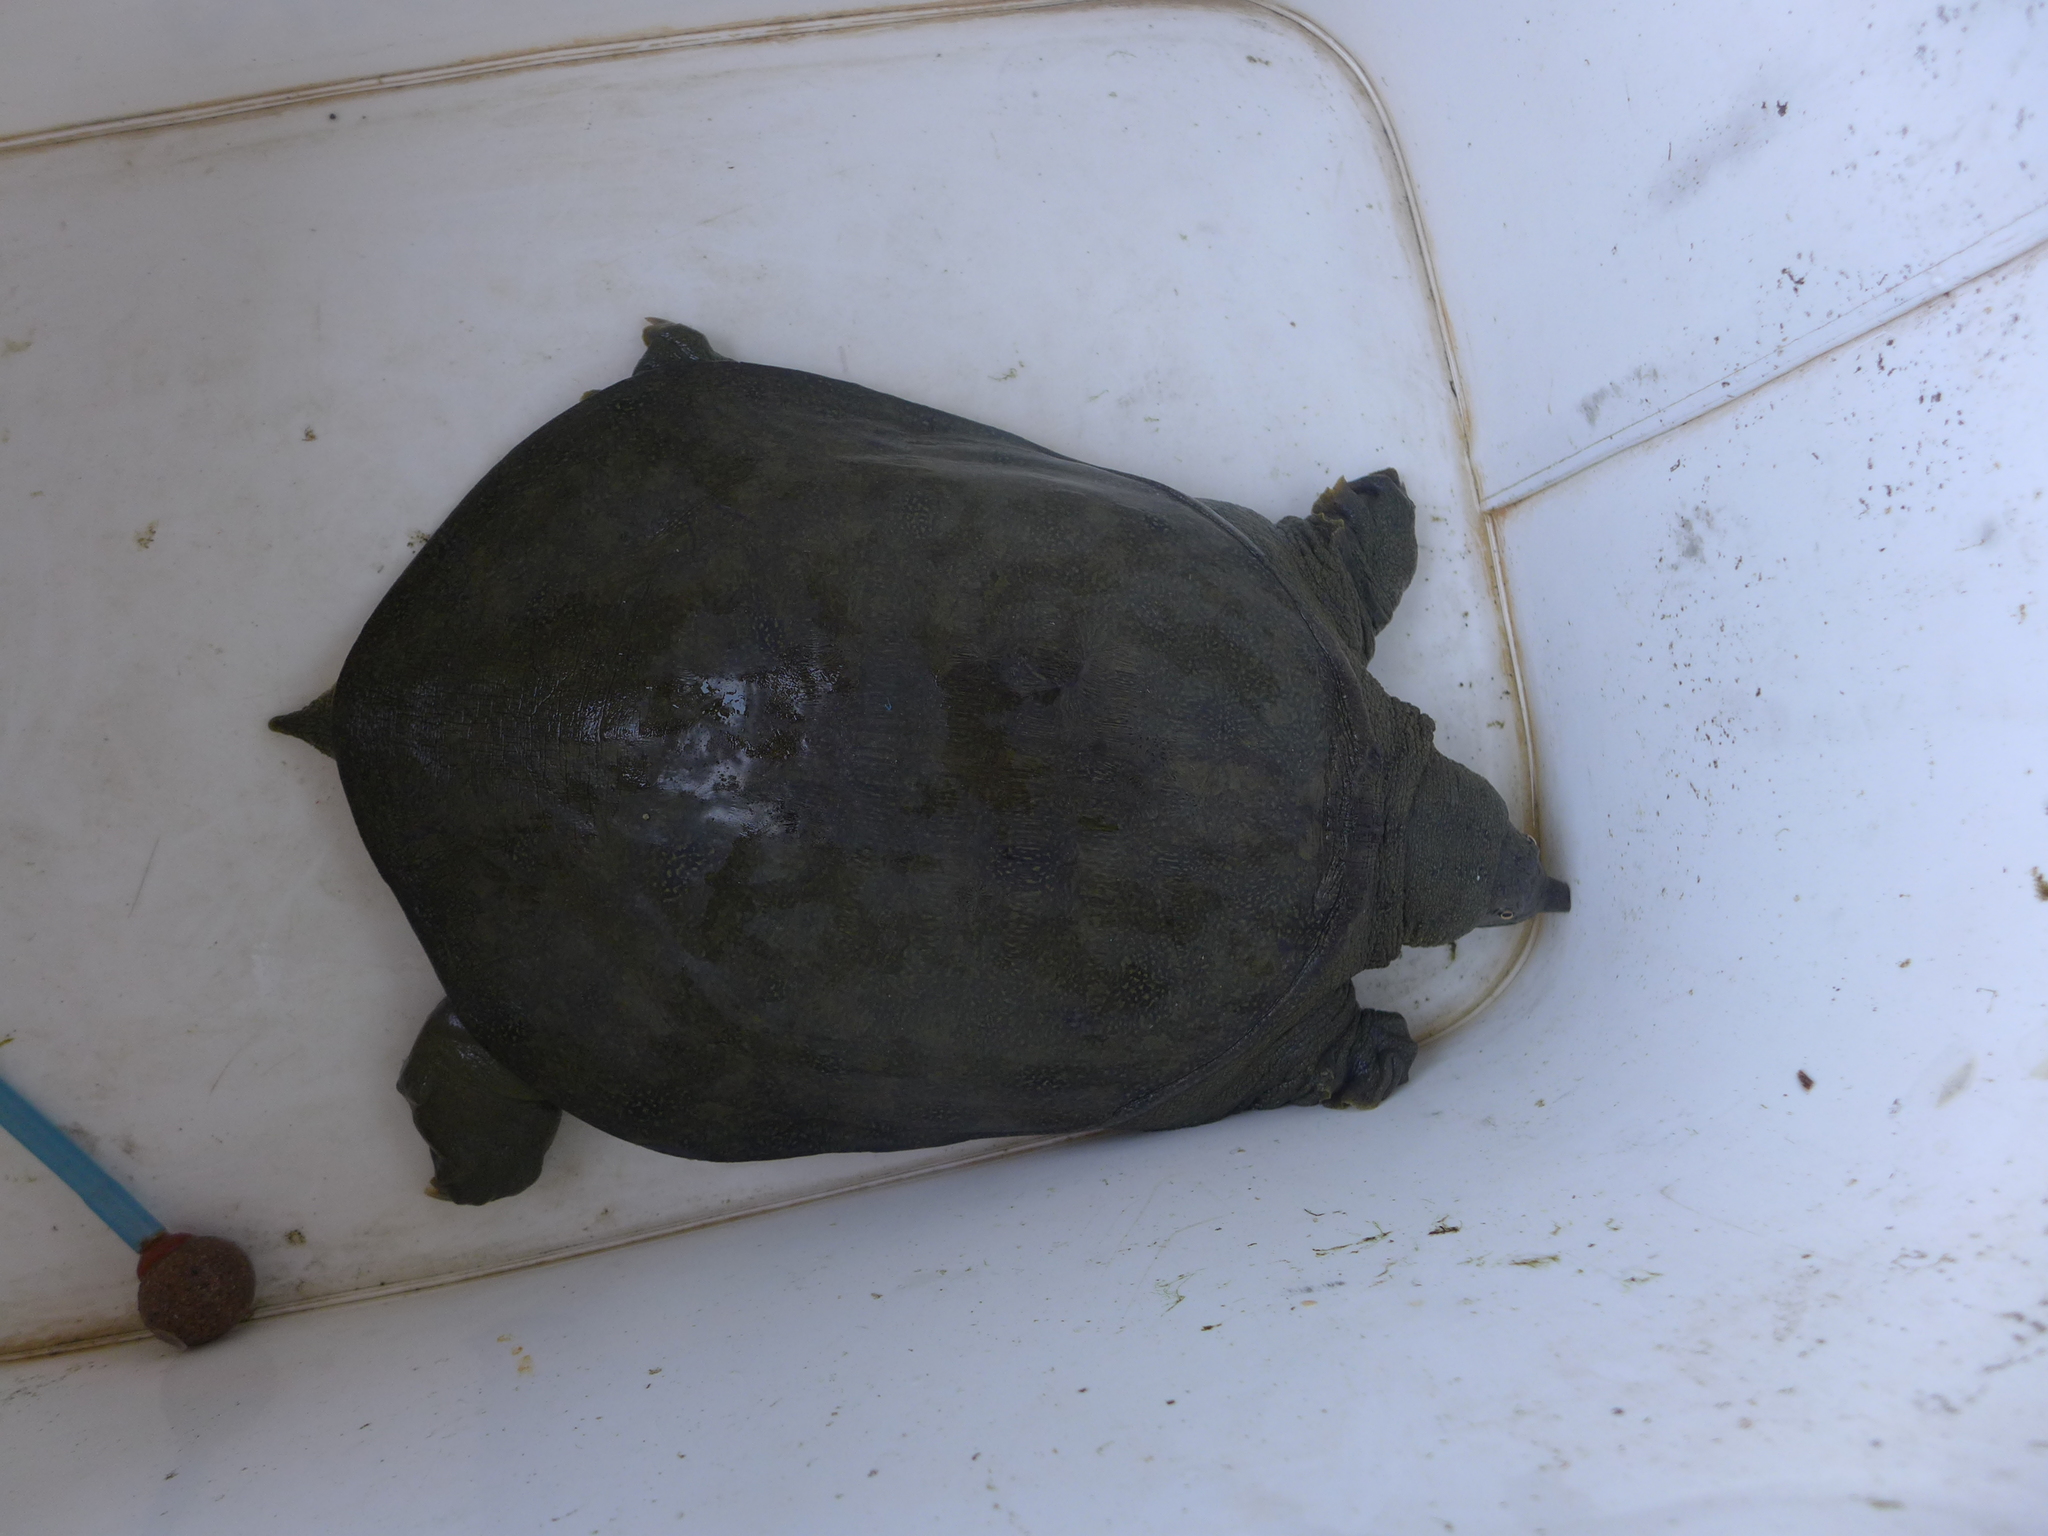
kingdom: Animalia
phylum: Chordata
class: Testudines
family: Trionychidae
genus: Pelodiscus
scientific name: Pelodiscus sinensis
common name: Chinese softshell turtle
